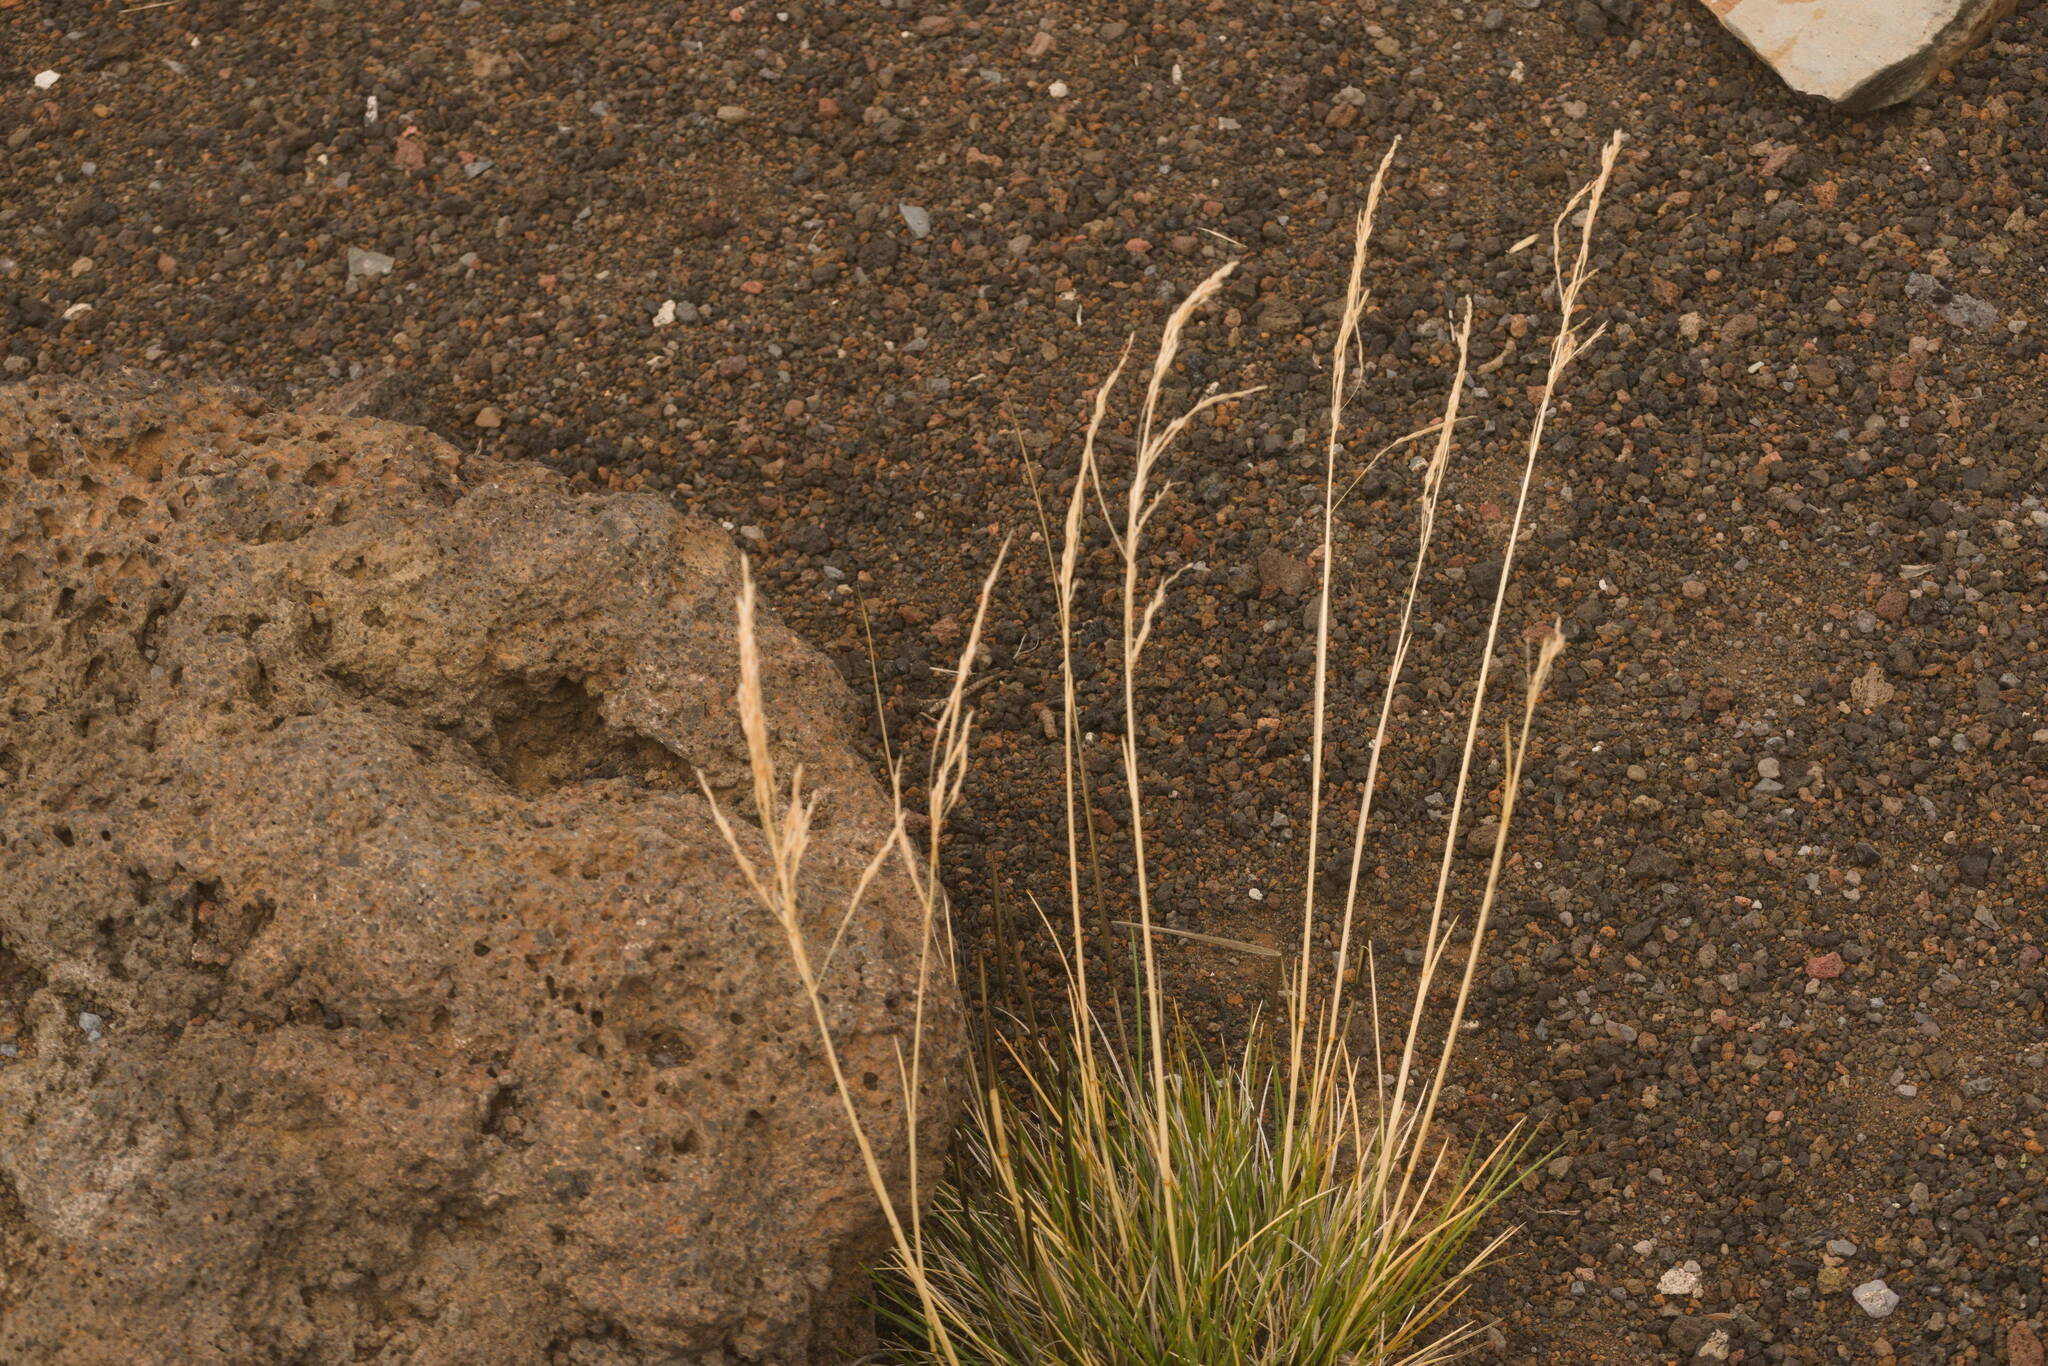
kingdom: Plantae
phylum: Tracheophyta
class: Liliopsida
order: Poales
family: Poaceae
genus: Deschampsia
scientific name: Deschampsia nubigena
